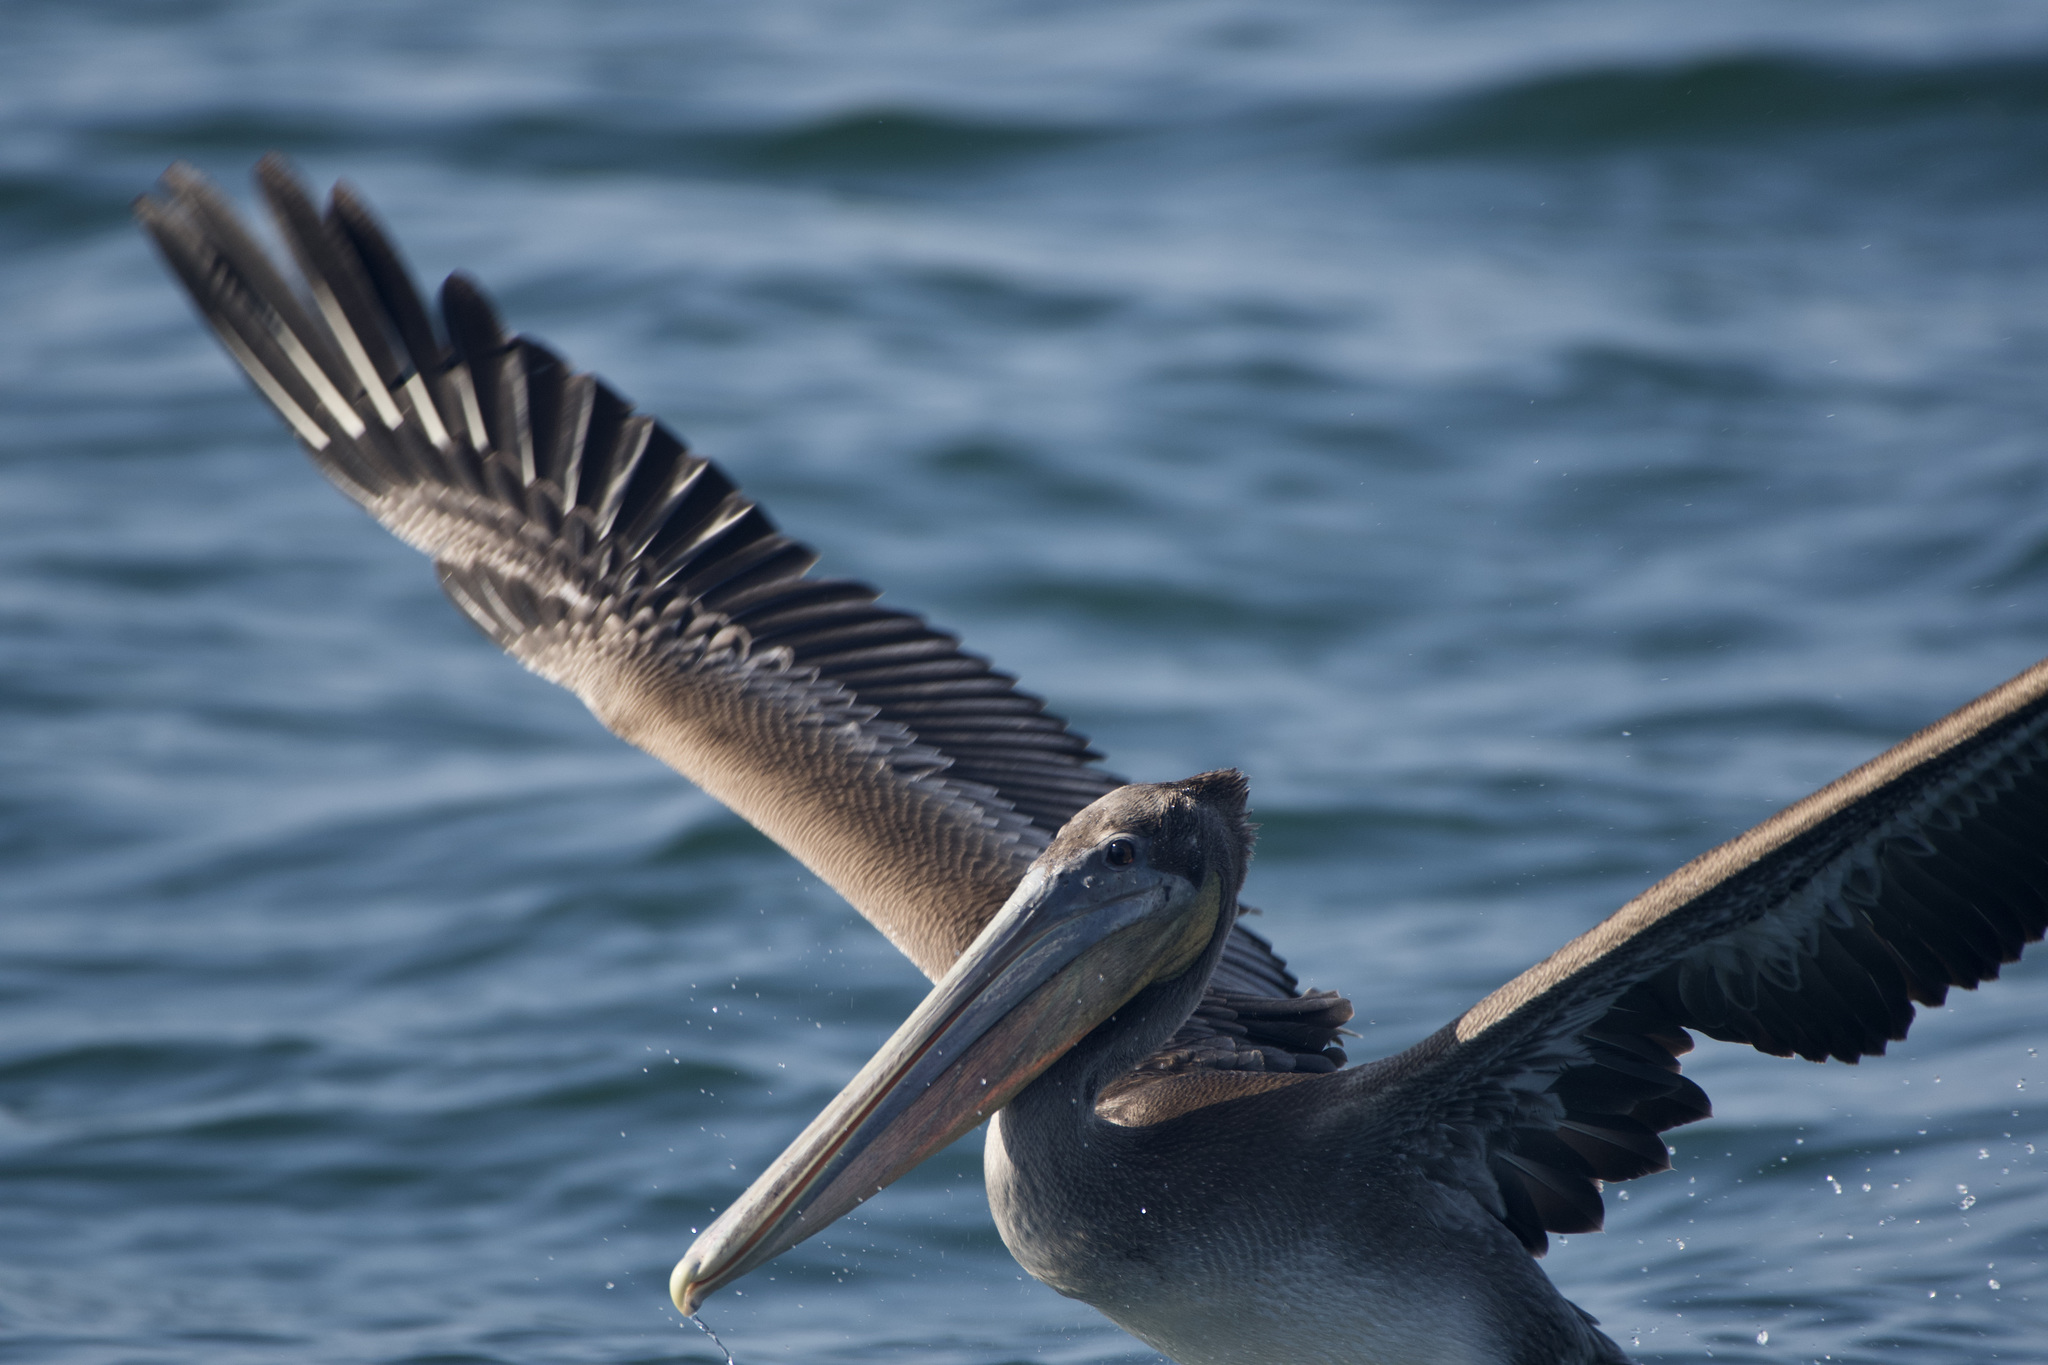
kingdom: Animalia
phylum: Chordata
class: Aves
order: Pelecaniformes
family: Pelecanidae
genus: Pelecanus
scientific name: Pelecanus occidentalis
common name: Brown pelican
